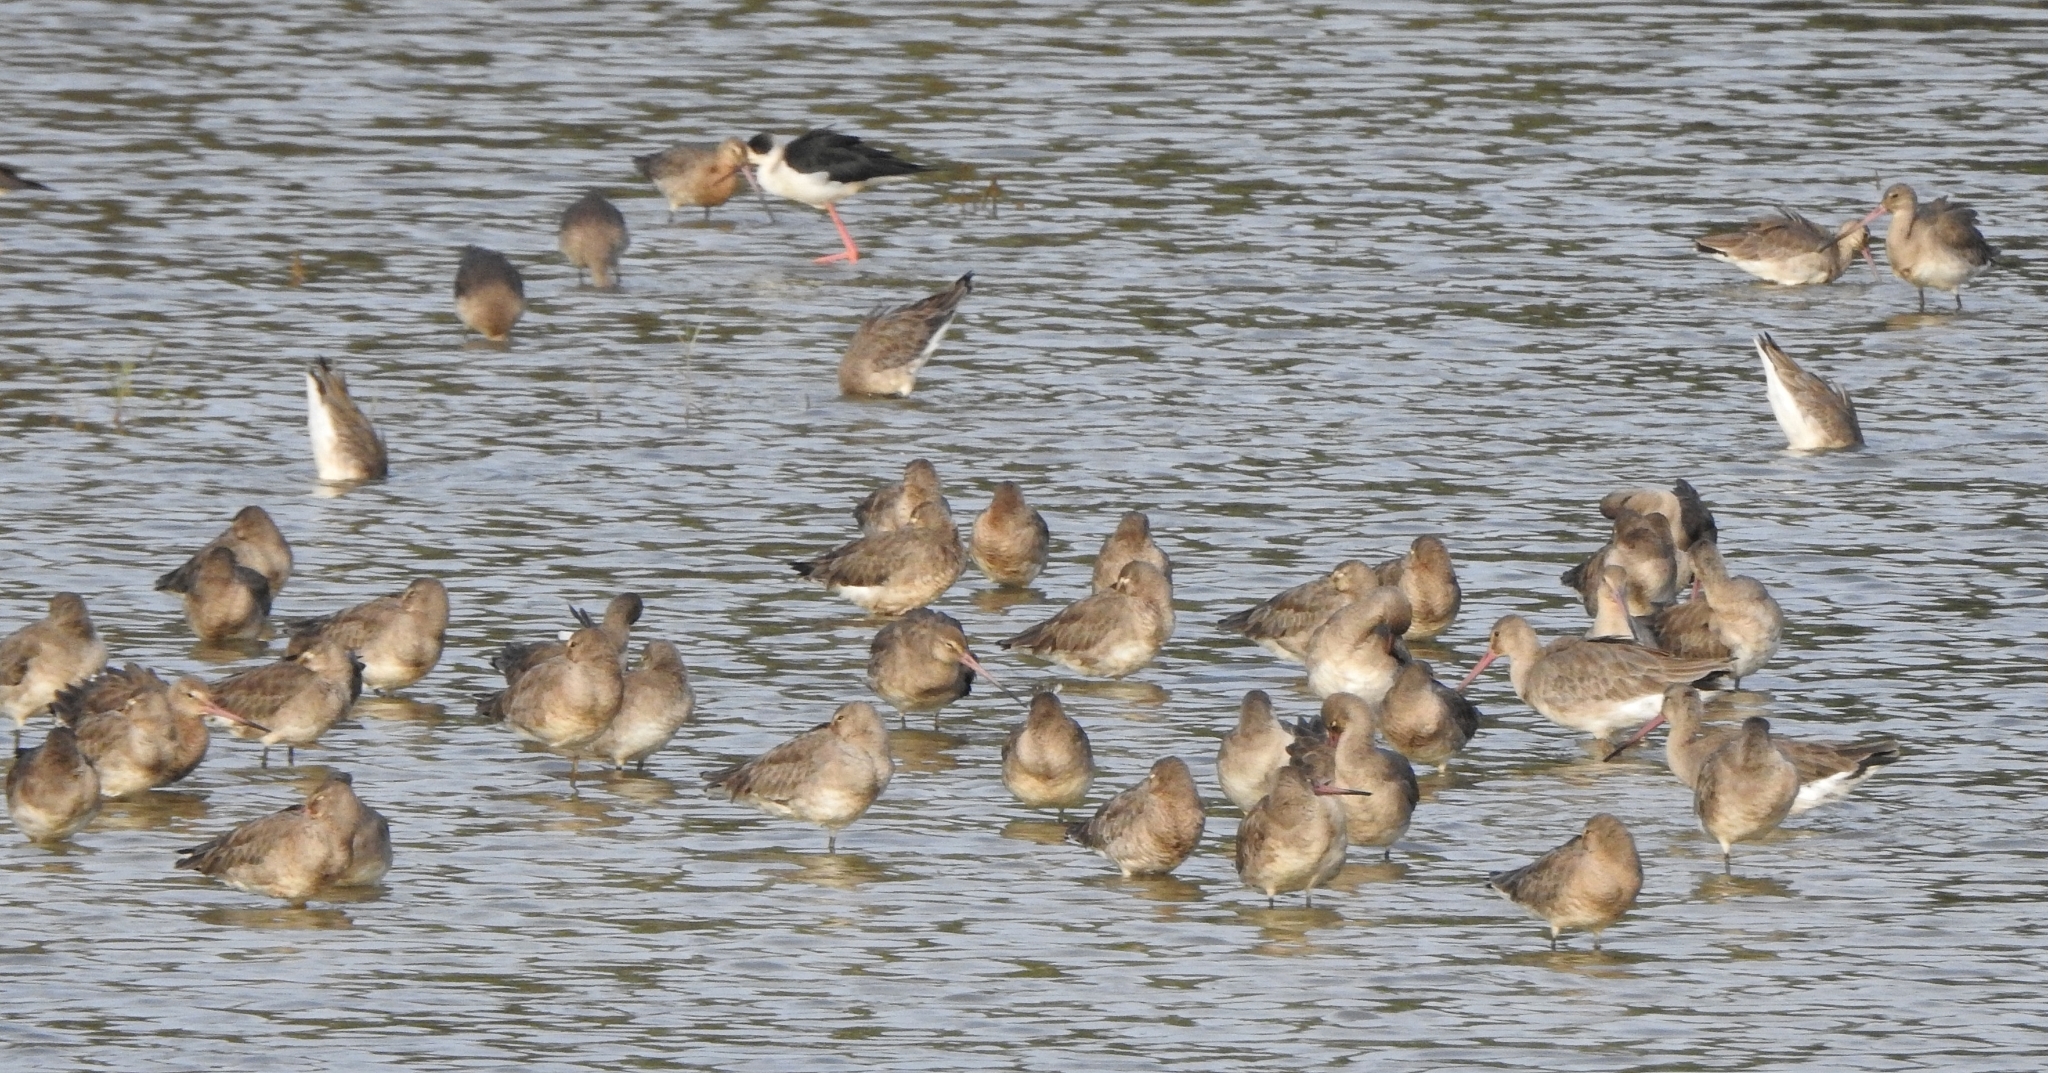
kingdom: Animalia
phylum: Chordata
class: Aves
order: Charadriiformes
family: Scolopacidae
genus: Limosa
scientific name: Limosa limosa
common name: Black-tailed godwit
